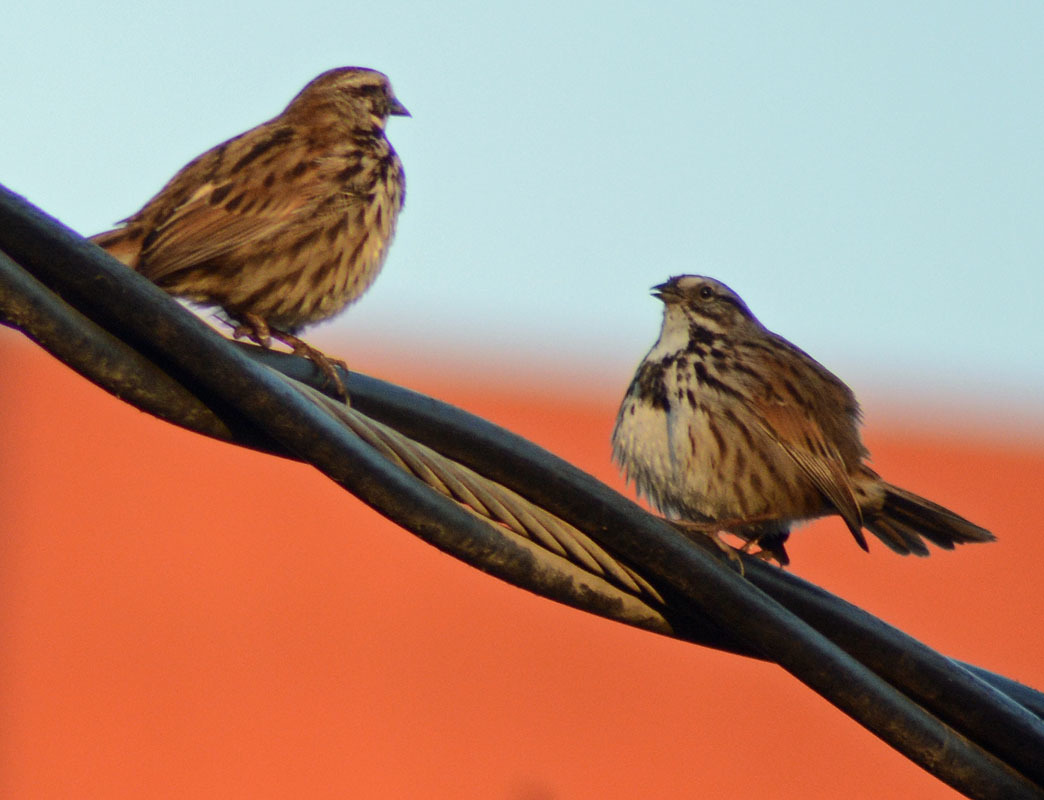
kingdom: Animalia
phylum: Chordata
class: Aves
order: Passeriformes
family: Passerellidae
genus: Melospiza
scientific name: Melospiza melodia
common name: Song sparrow
